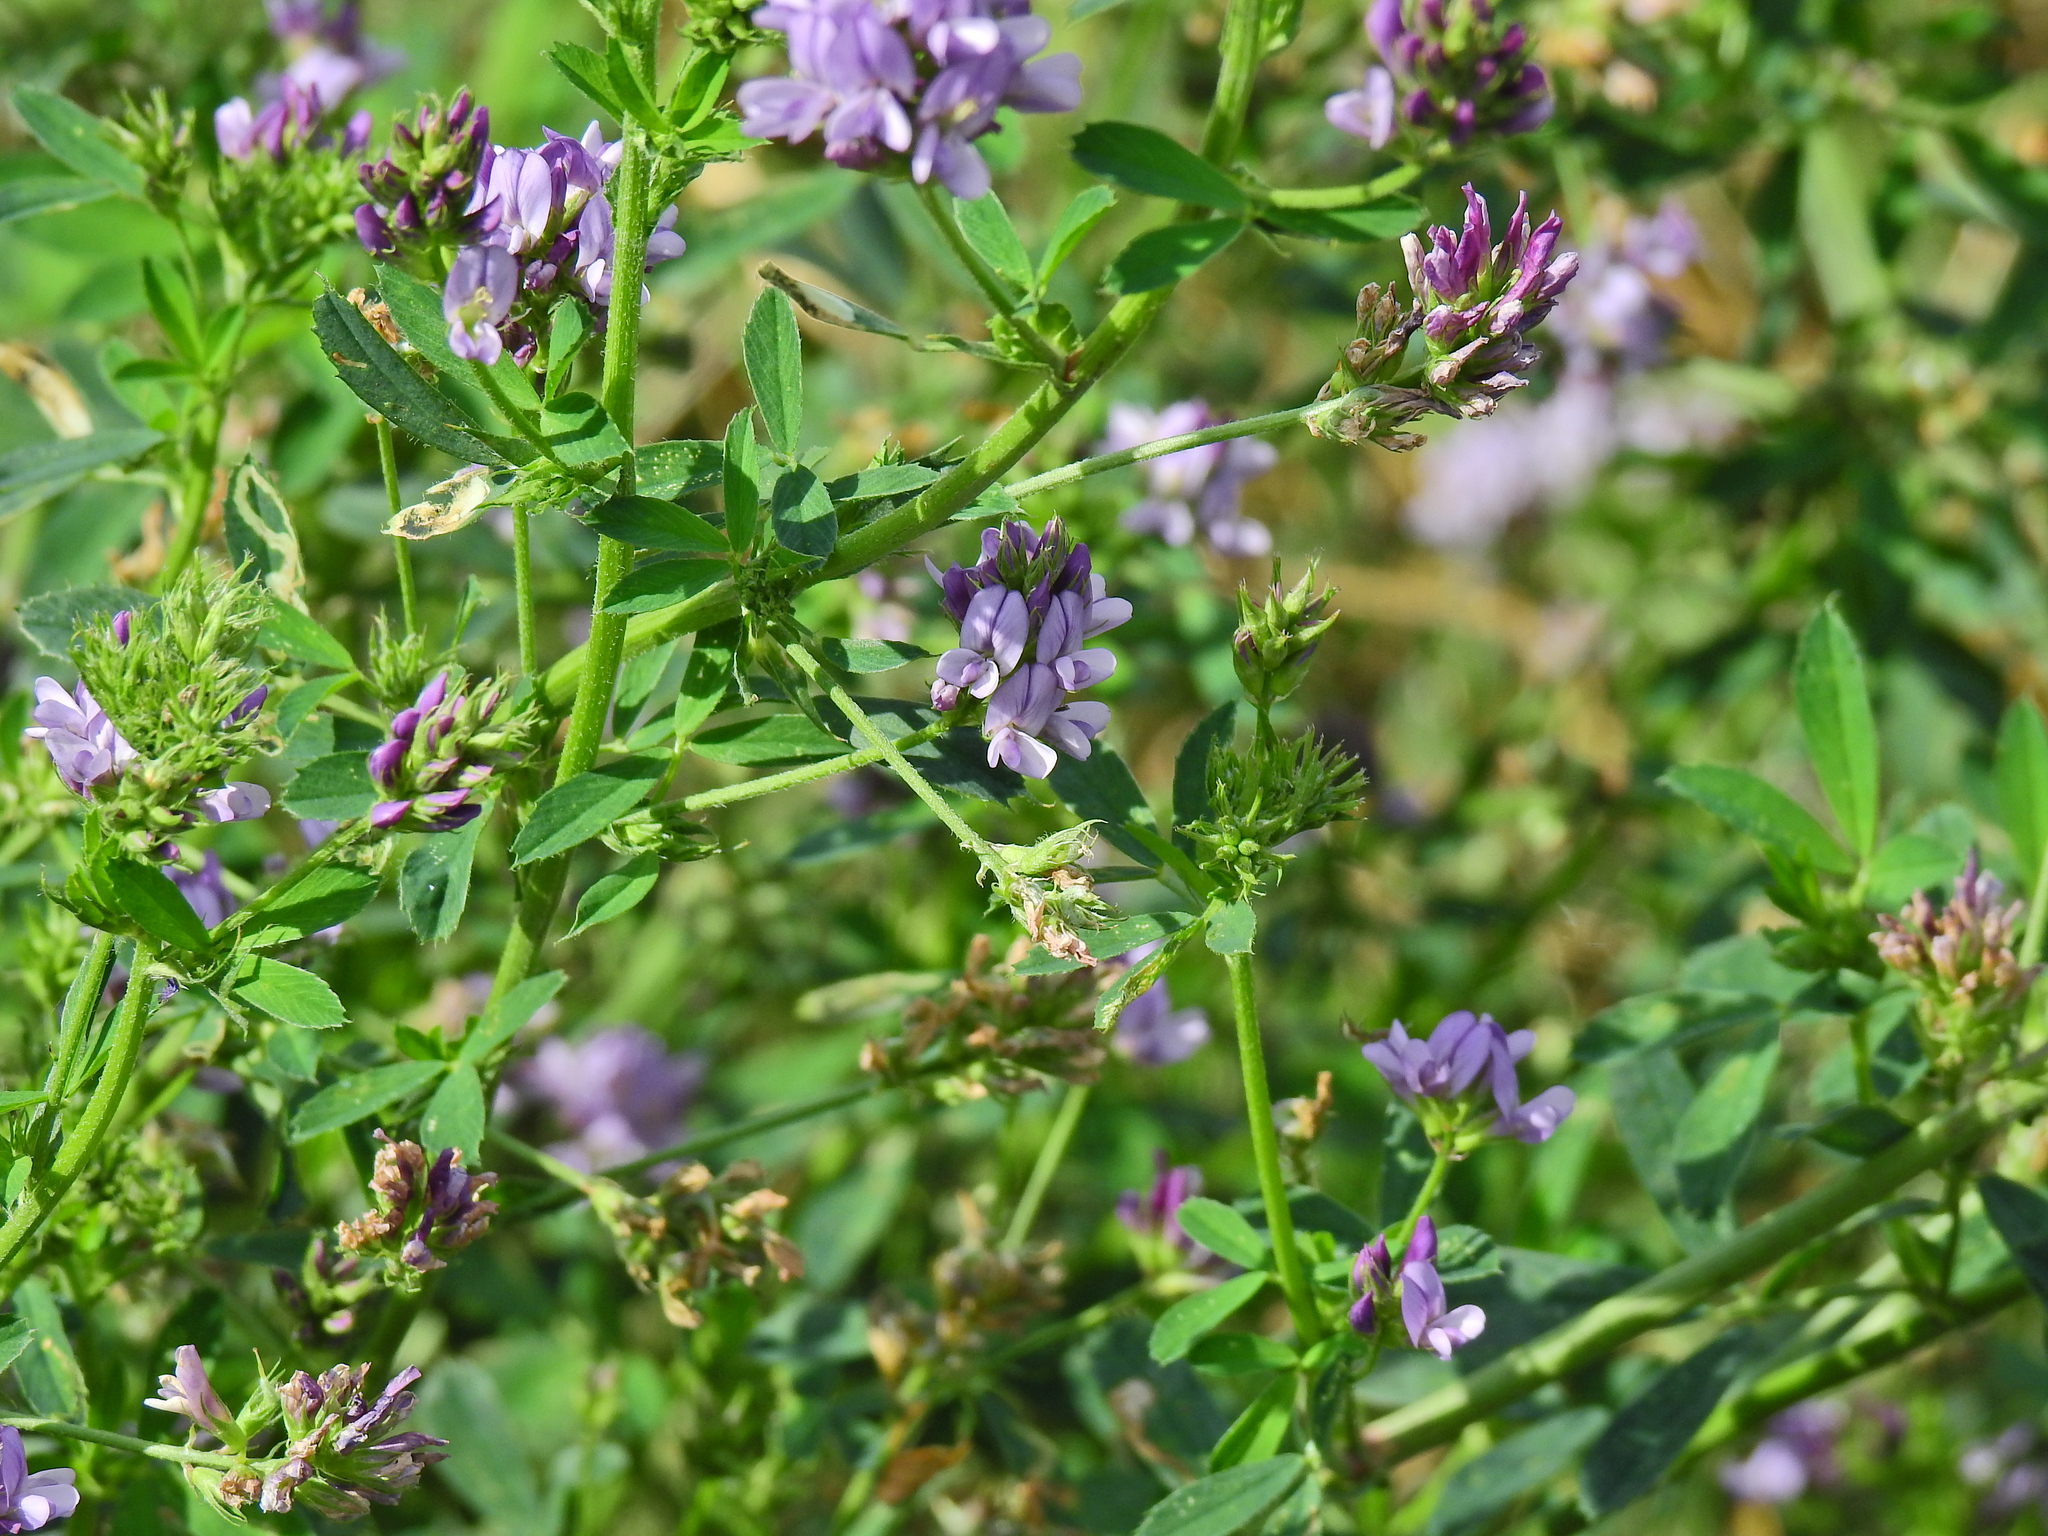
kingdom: Plantae
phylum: Tracheophyta
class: Magnoliopsida
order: Fabales
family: Fabaceae
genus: Medicago
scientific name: Medicago sativa
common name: Alfalfa
